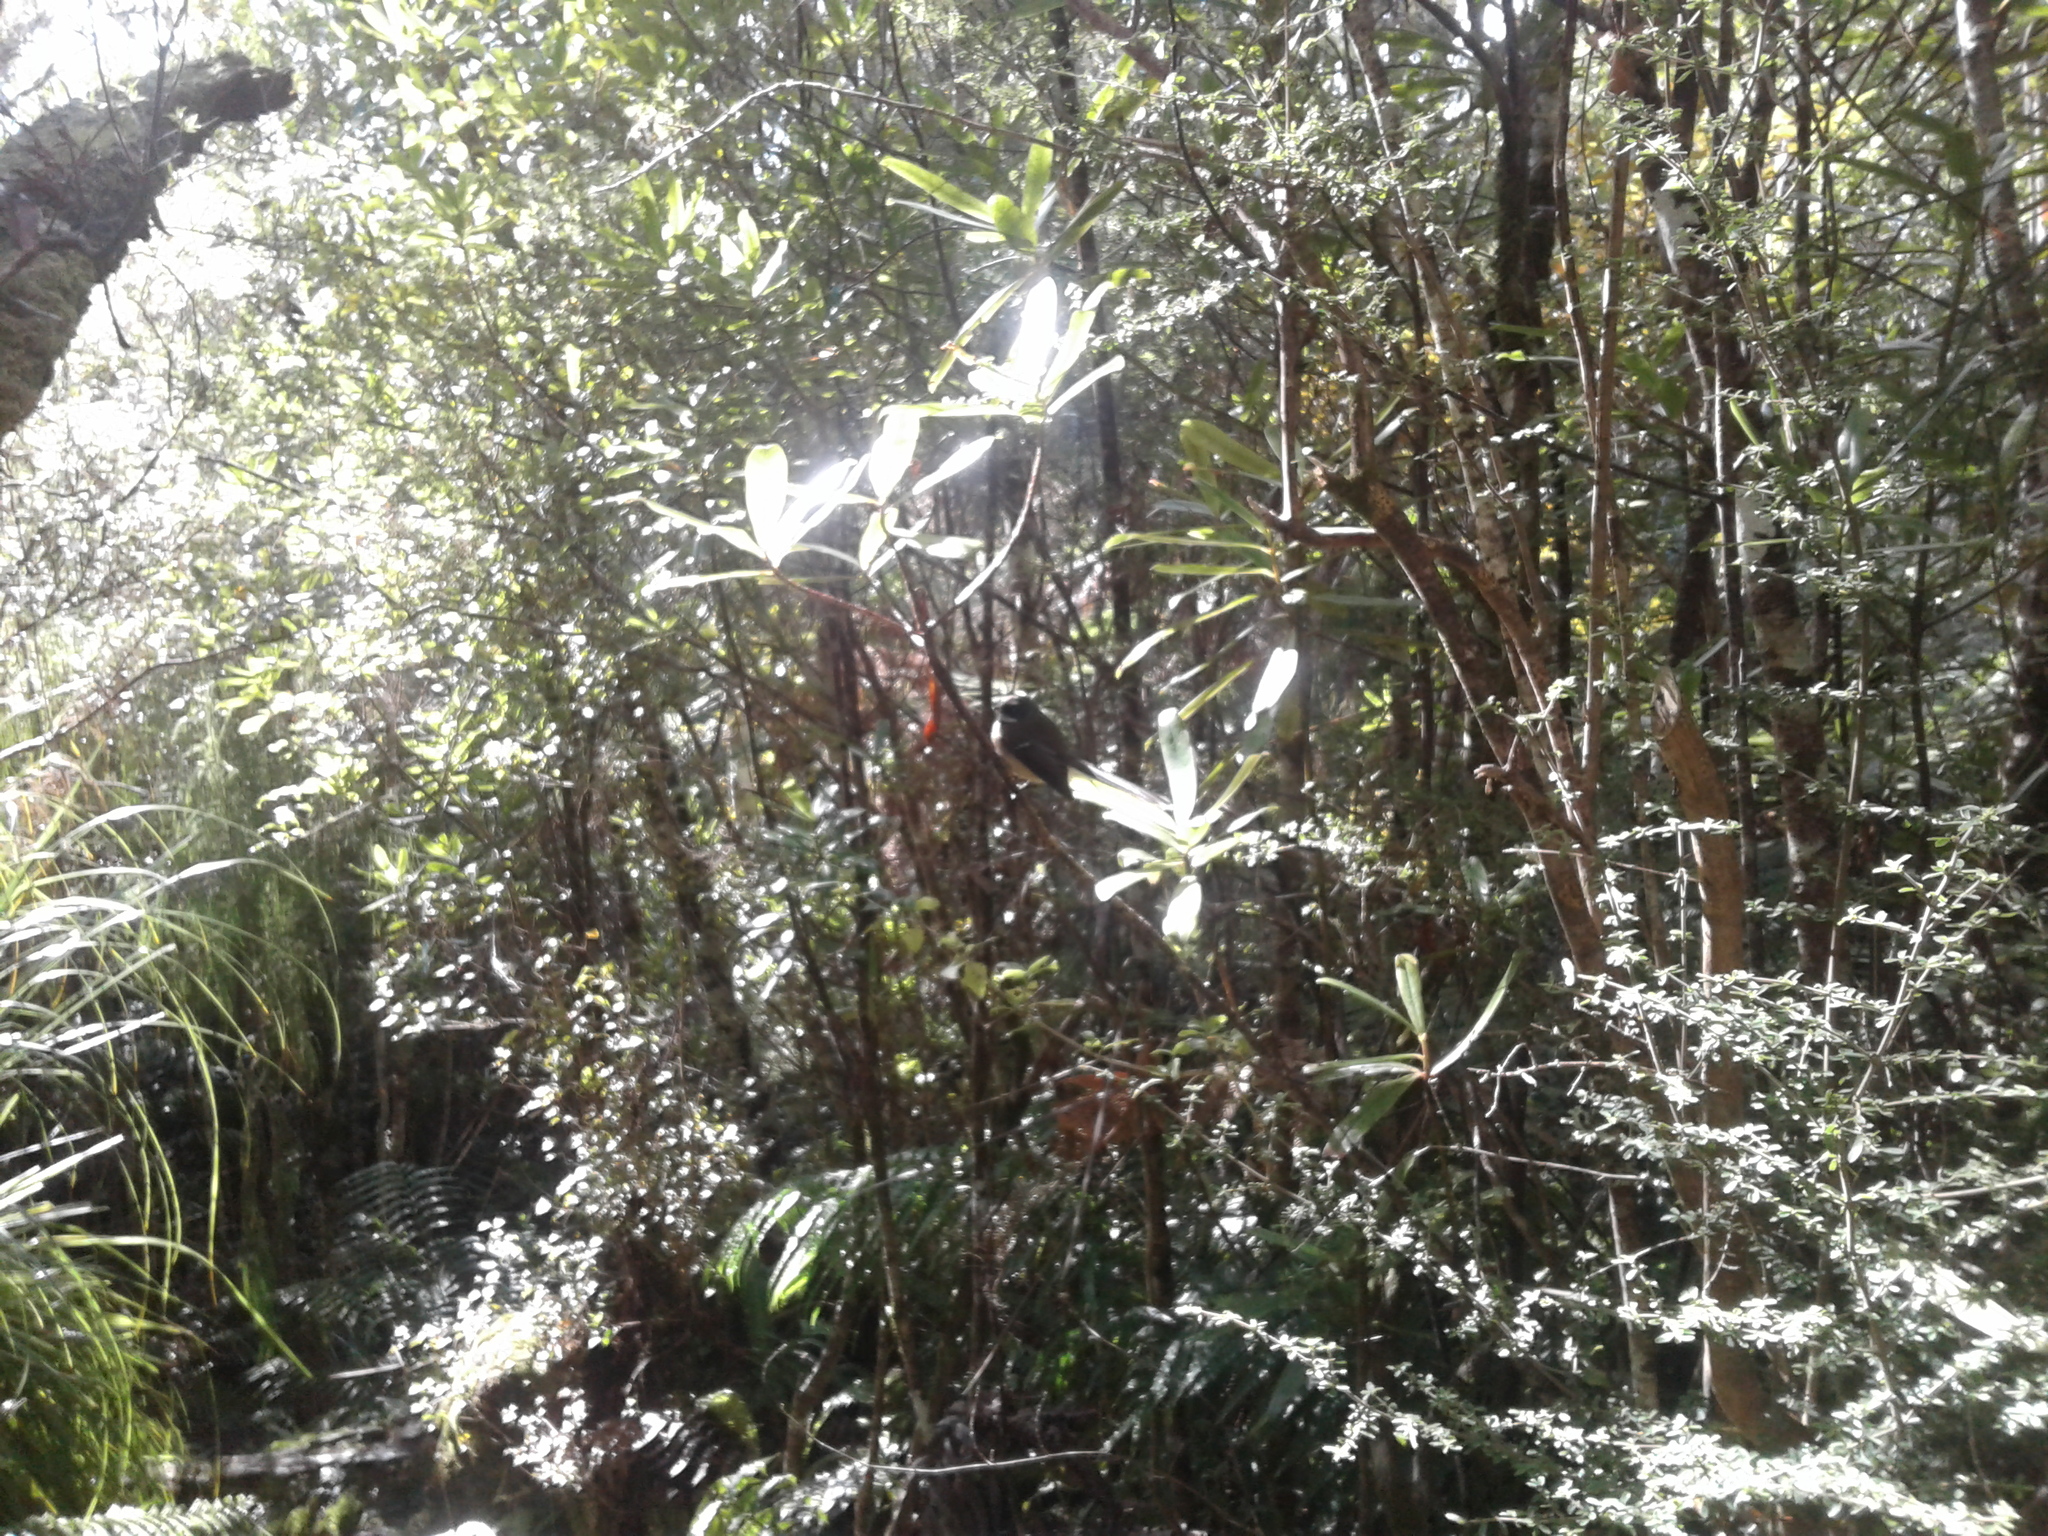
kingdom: Animalia
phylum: Chordata
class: Aves
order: Passeriformes
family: Rhipiduridae
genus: Rhipidura
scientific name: Rhipidura fuliginosa
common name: New zealand fantail
